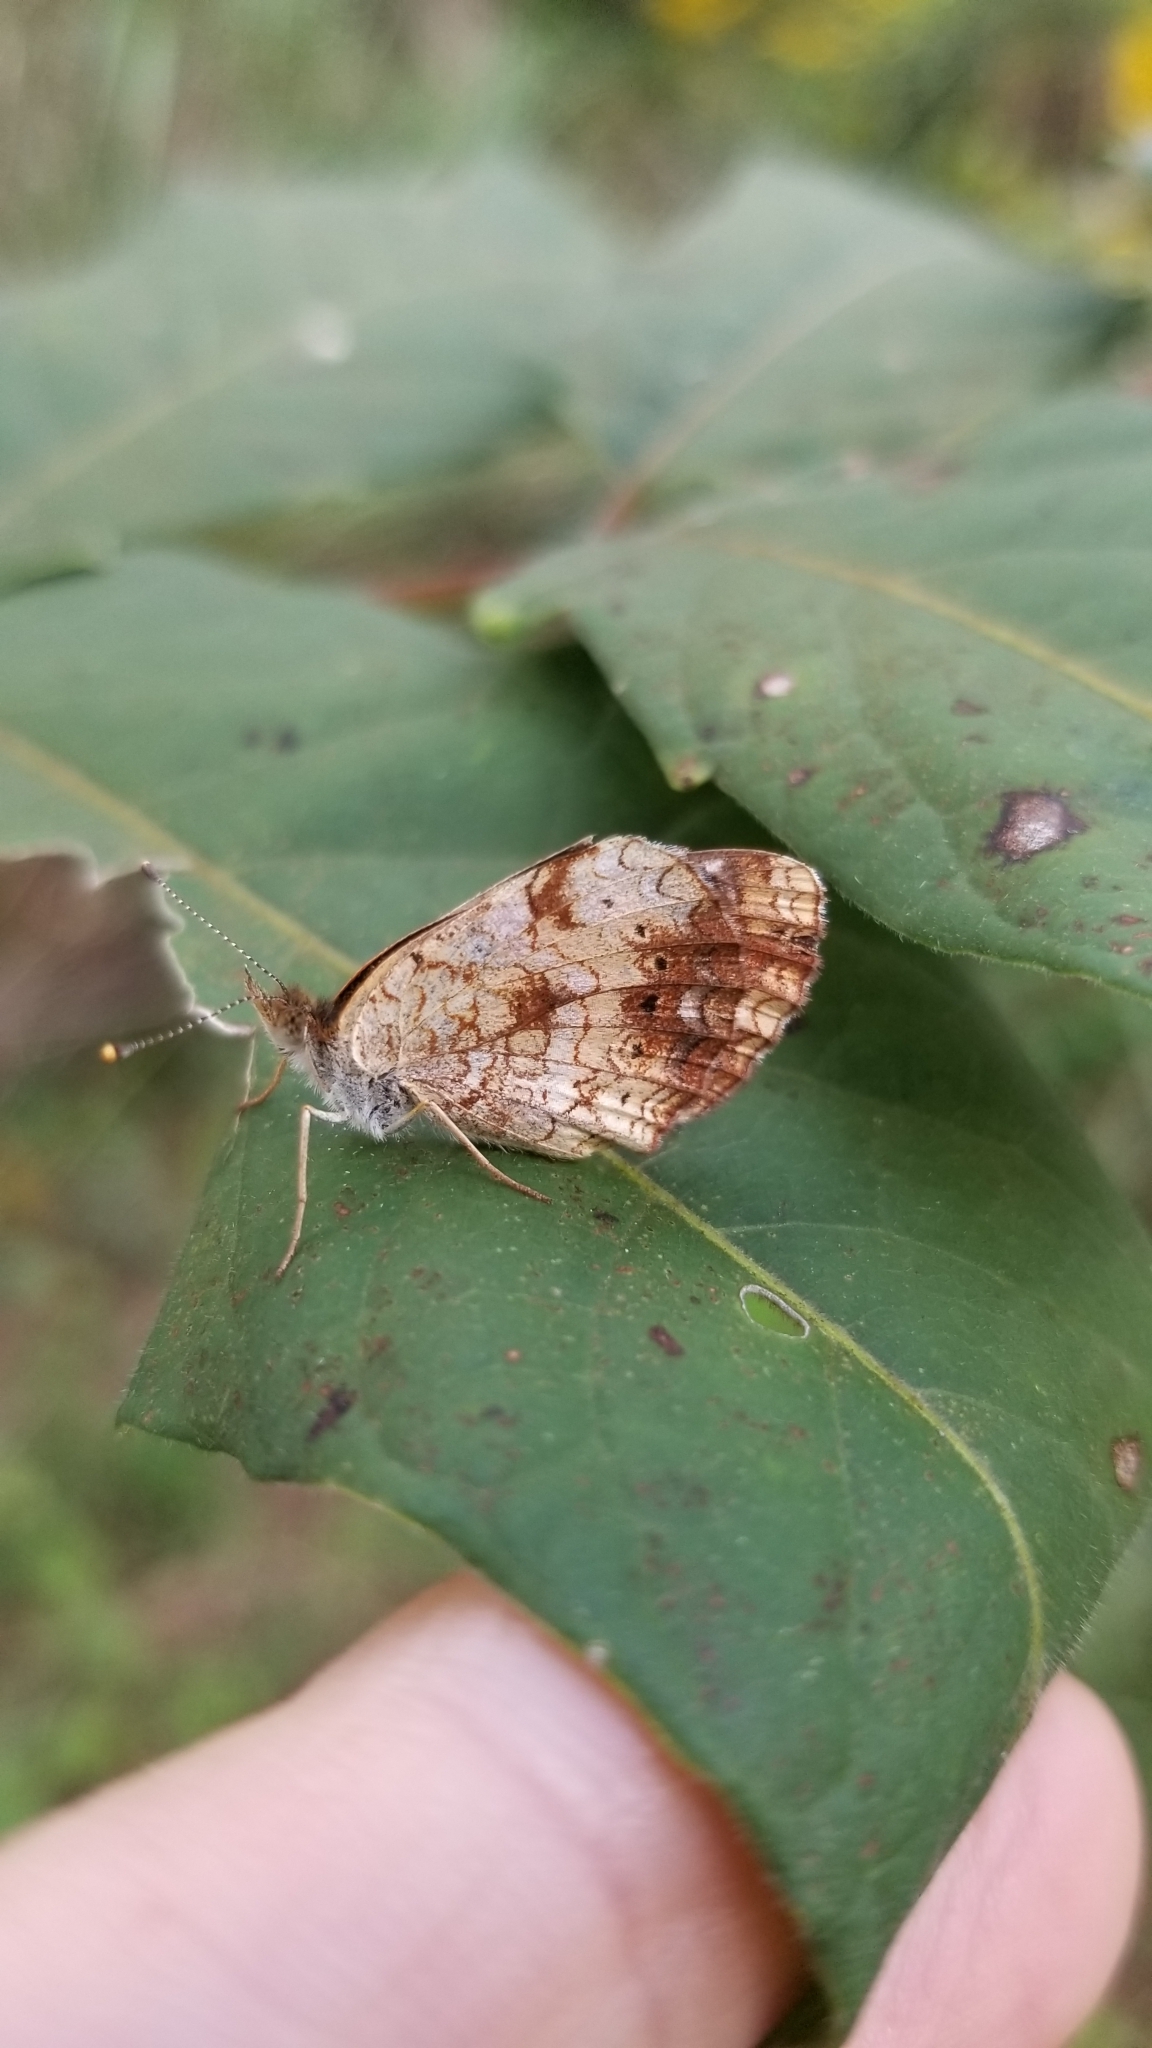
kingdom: Animalia
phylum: Arthropoda
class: Insecta
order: Lepidoptera
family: Nymphalidae
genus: Phyciodes
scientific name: Phyciodes tharos
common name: Pearl crescent
